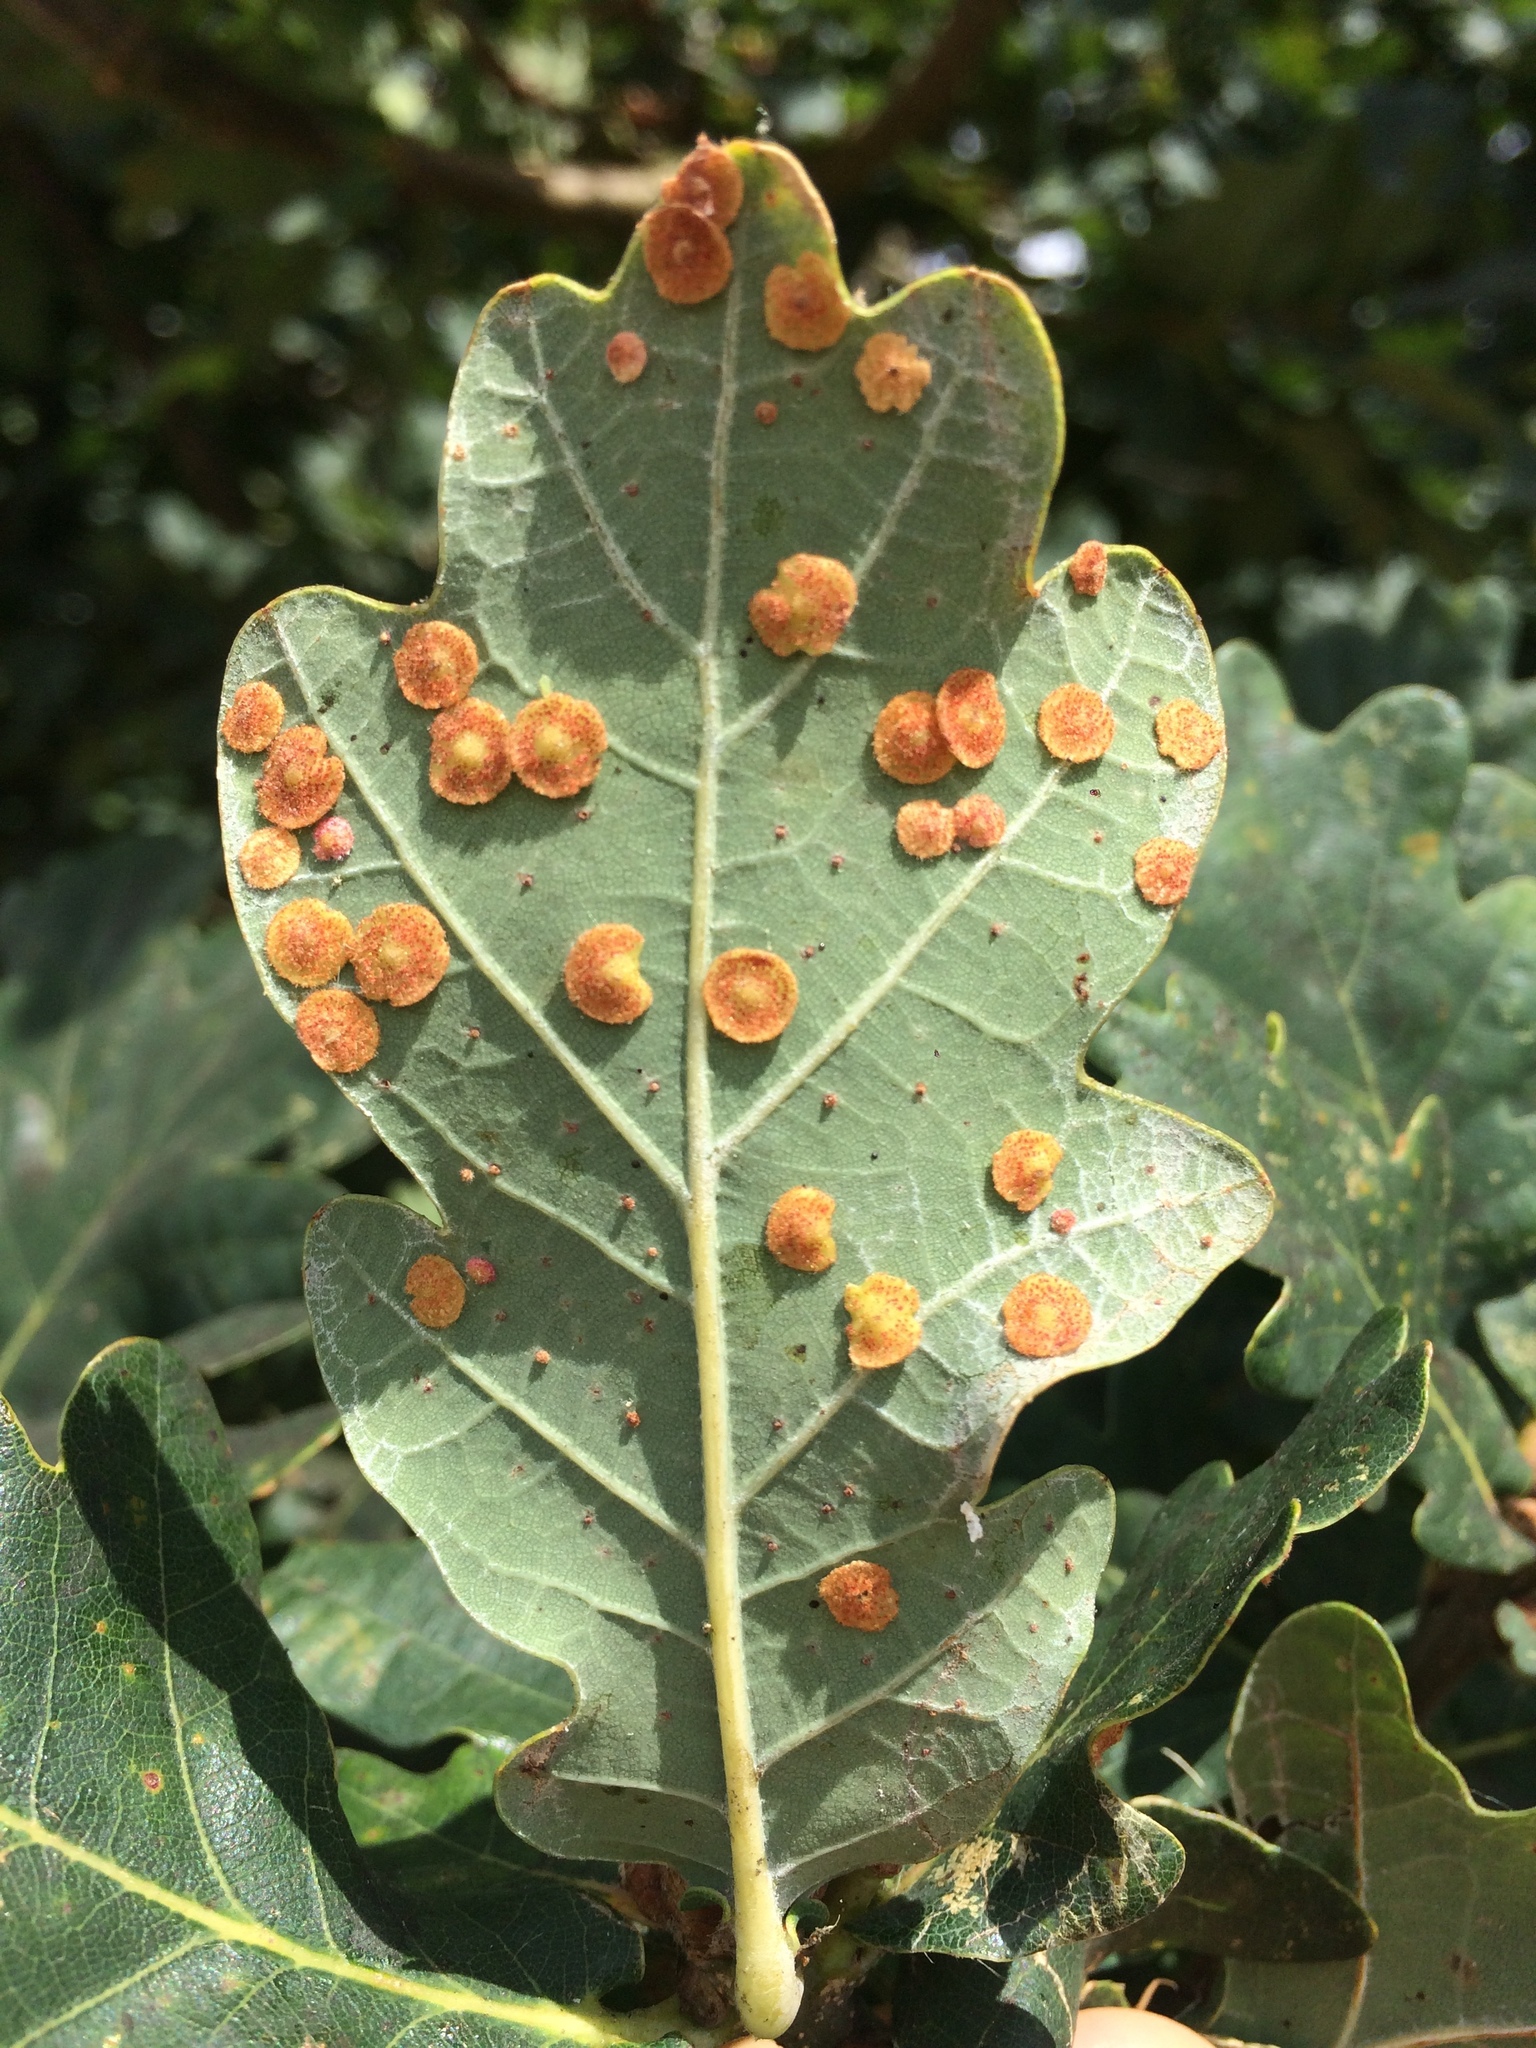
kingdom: Animalia
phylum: Arthropoda
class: Insecta
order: Hymenoptera
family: Cynipidae
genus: Neuroterus
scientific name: Neuroterus quercusbaccarum
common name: Common spangle gall
